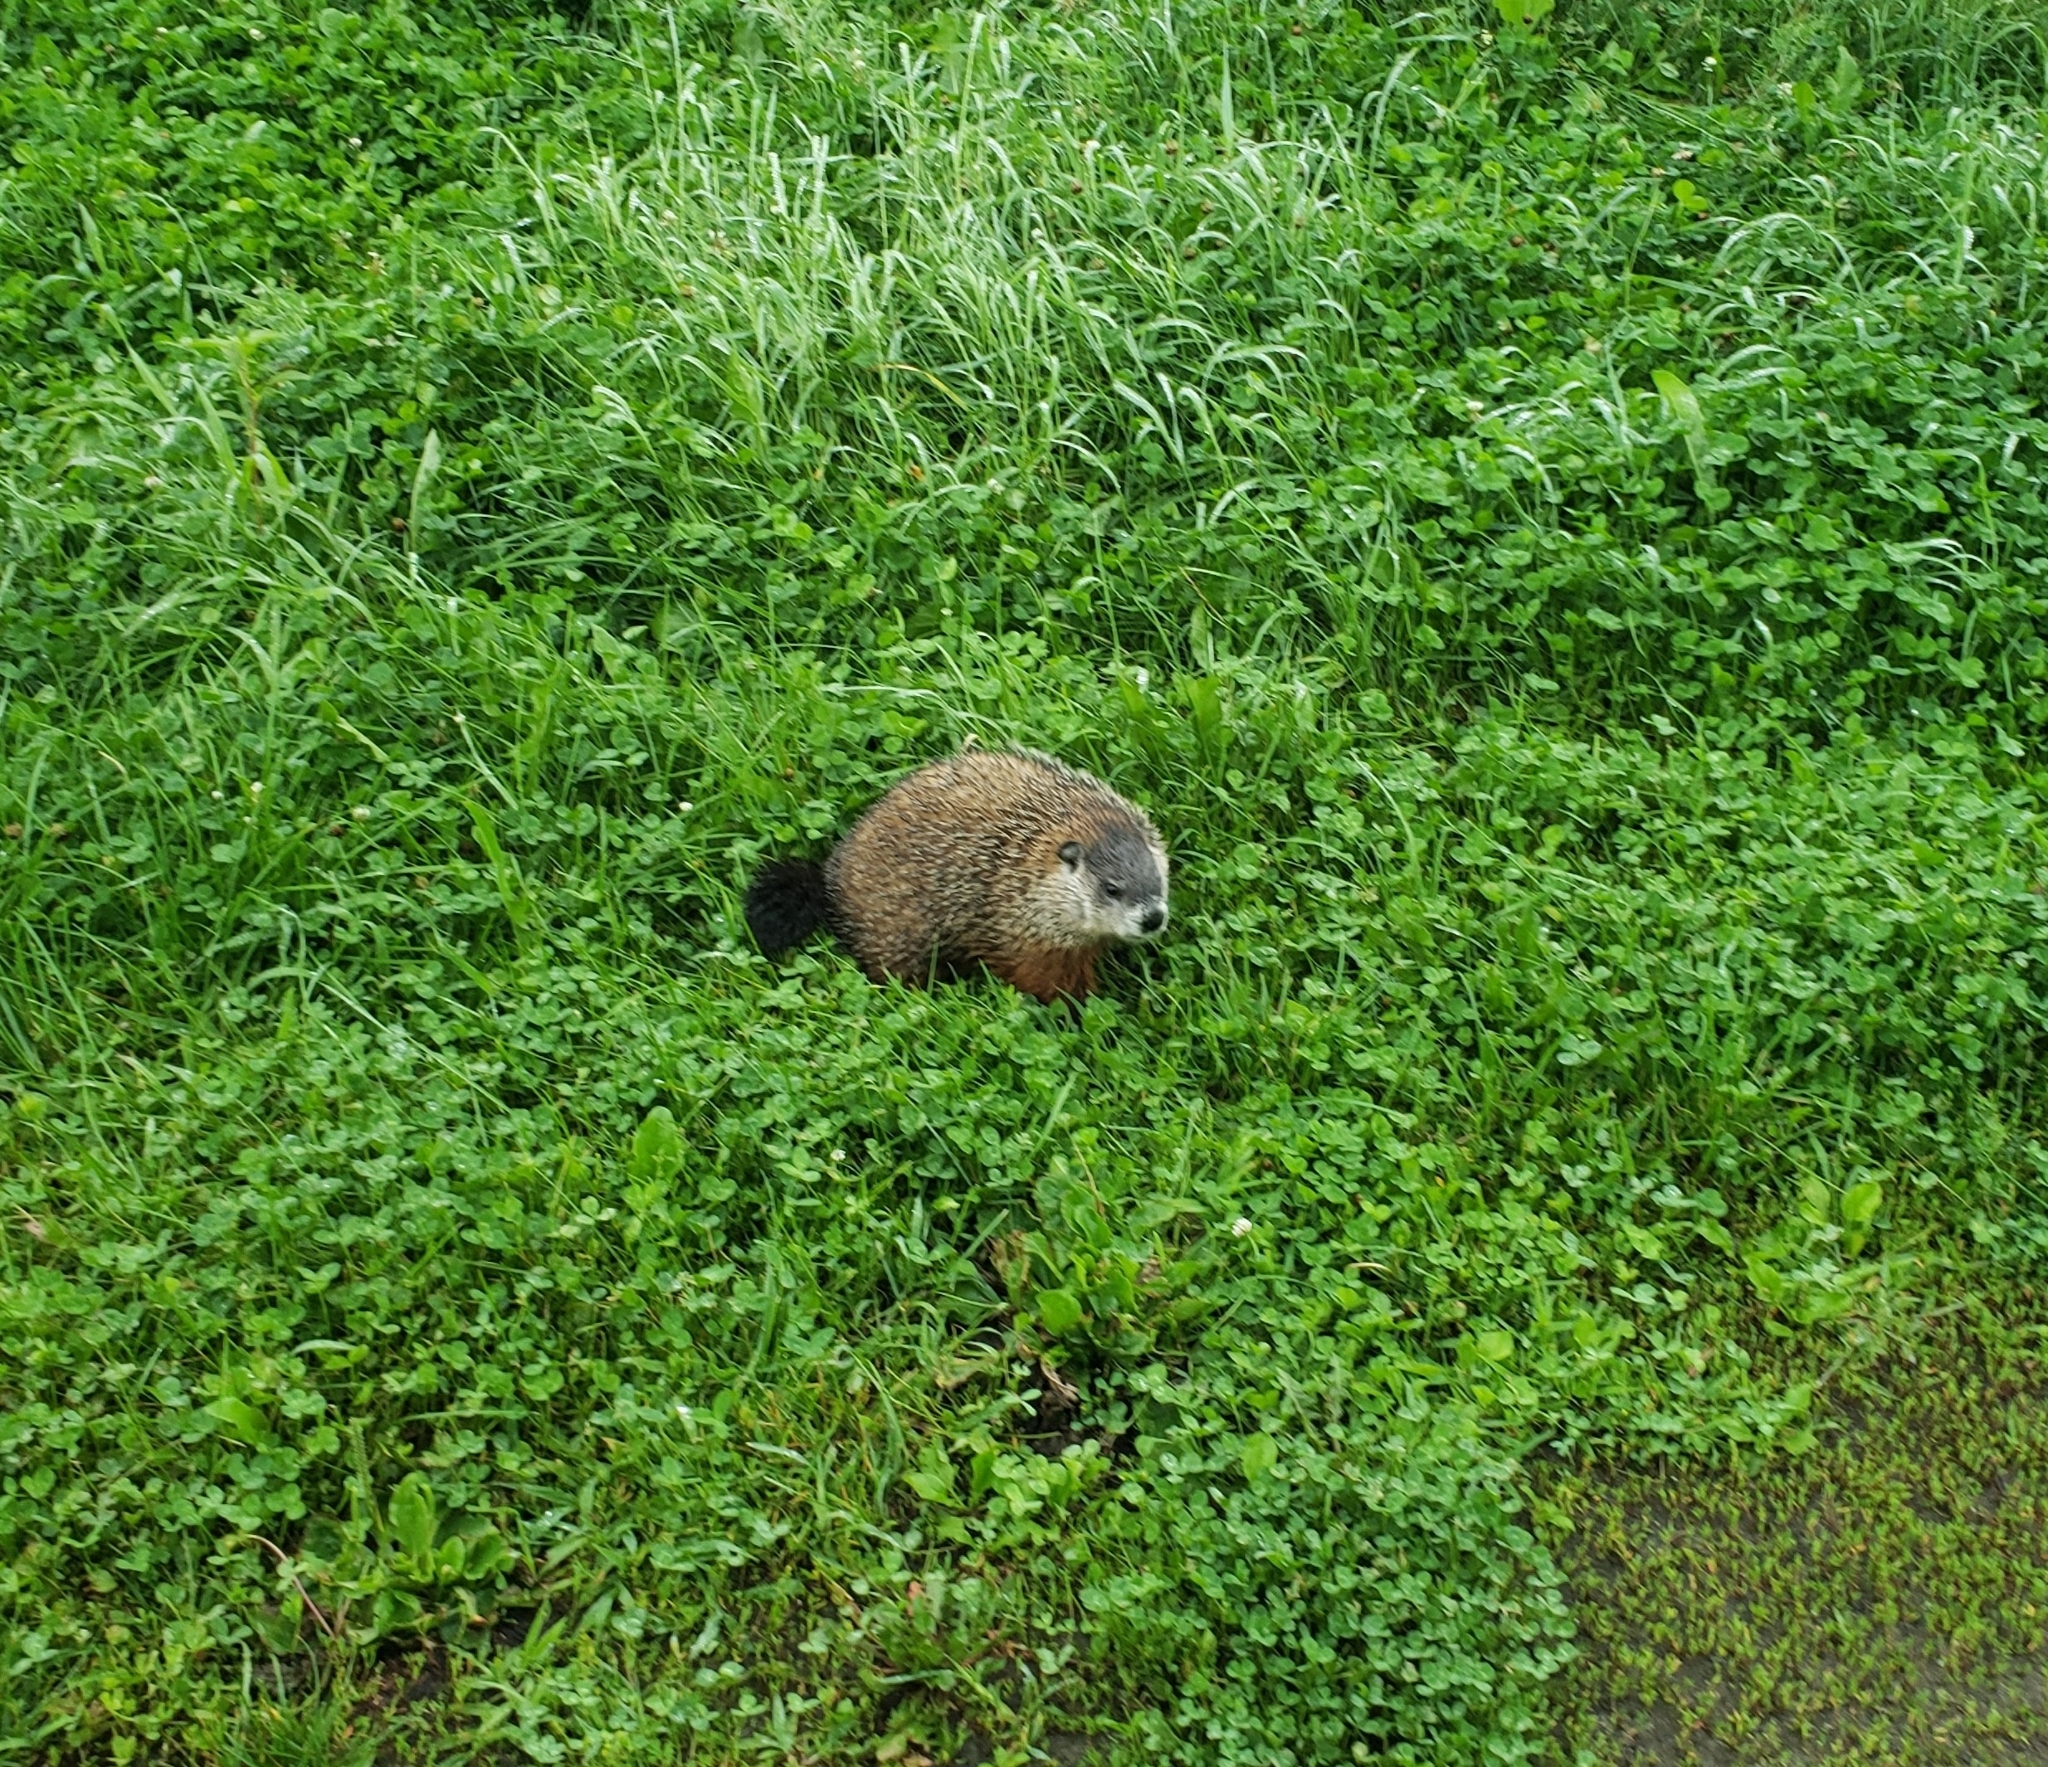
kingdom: Animalia
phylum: Chordata
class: Mammalia
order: Rodentia
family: Sciuridae
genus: Marmota
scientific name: Marmota monax
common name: Groundhog
